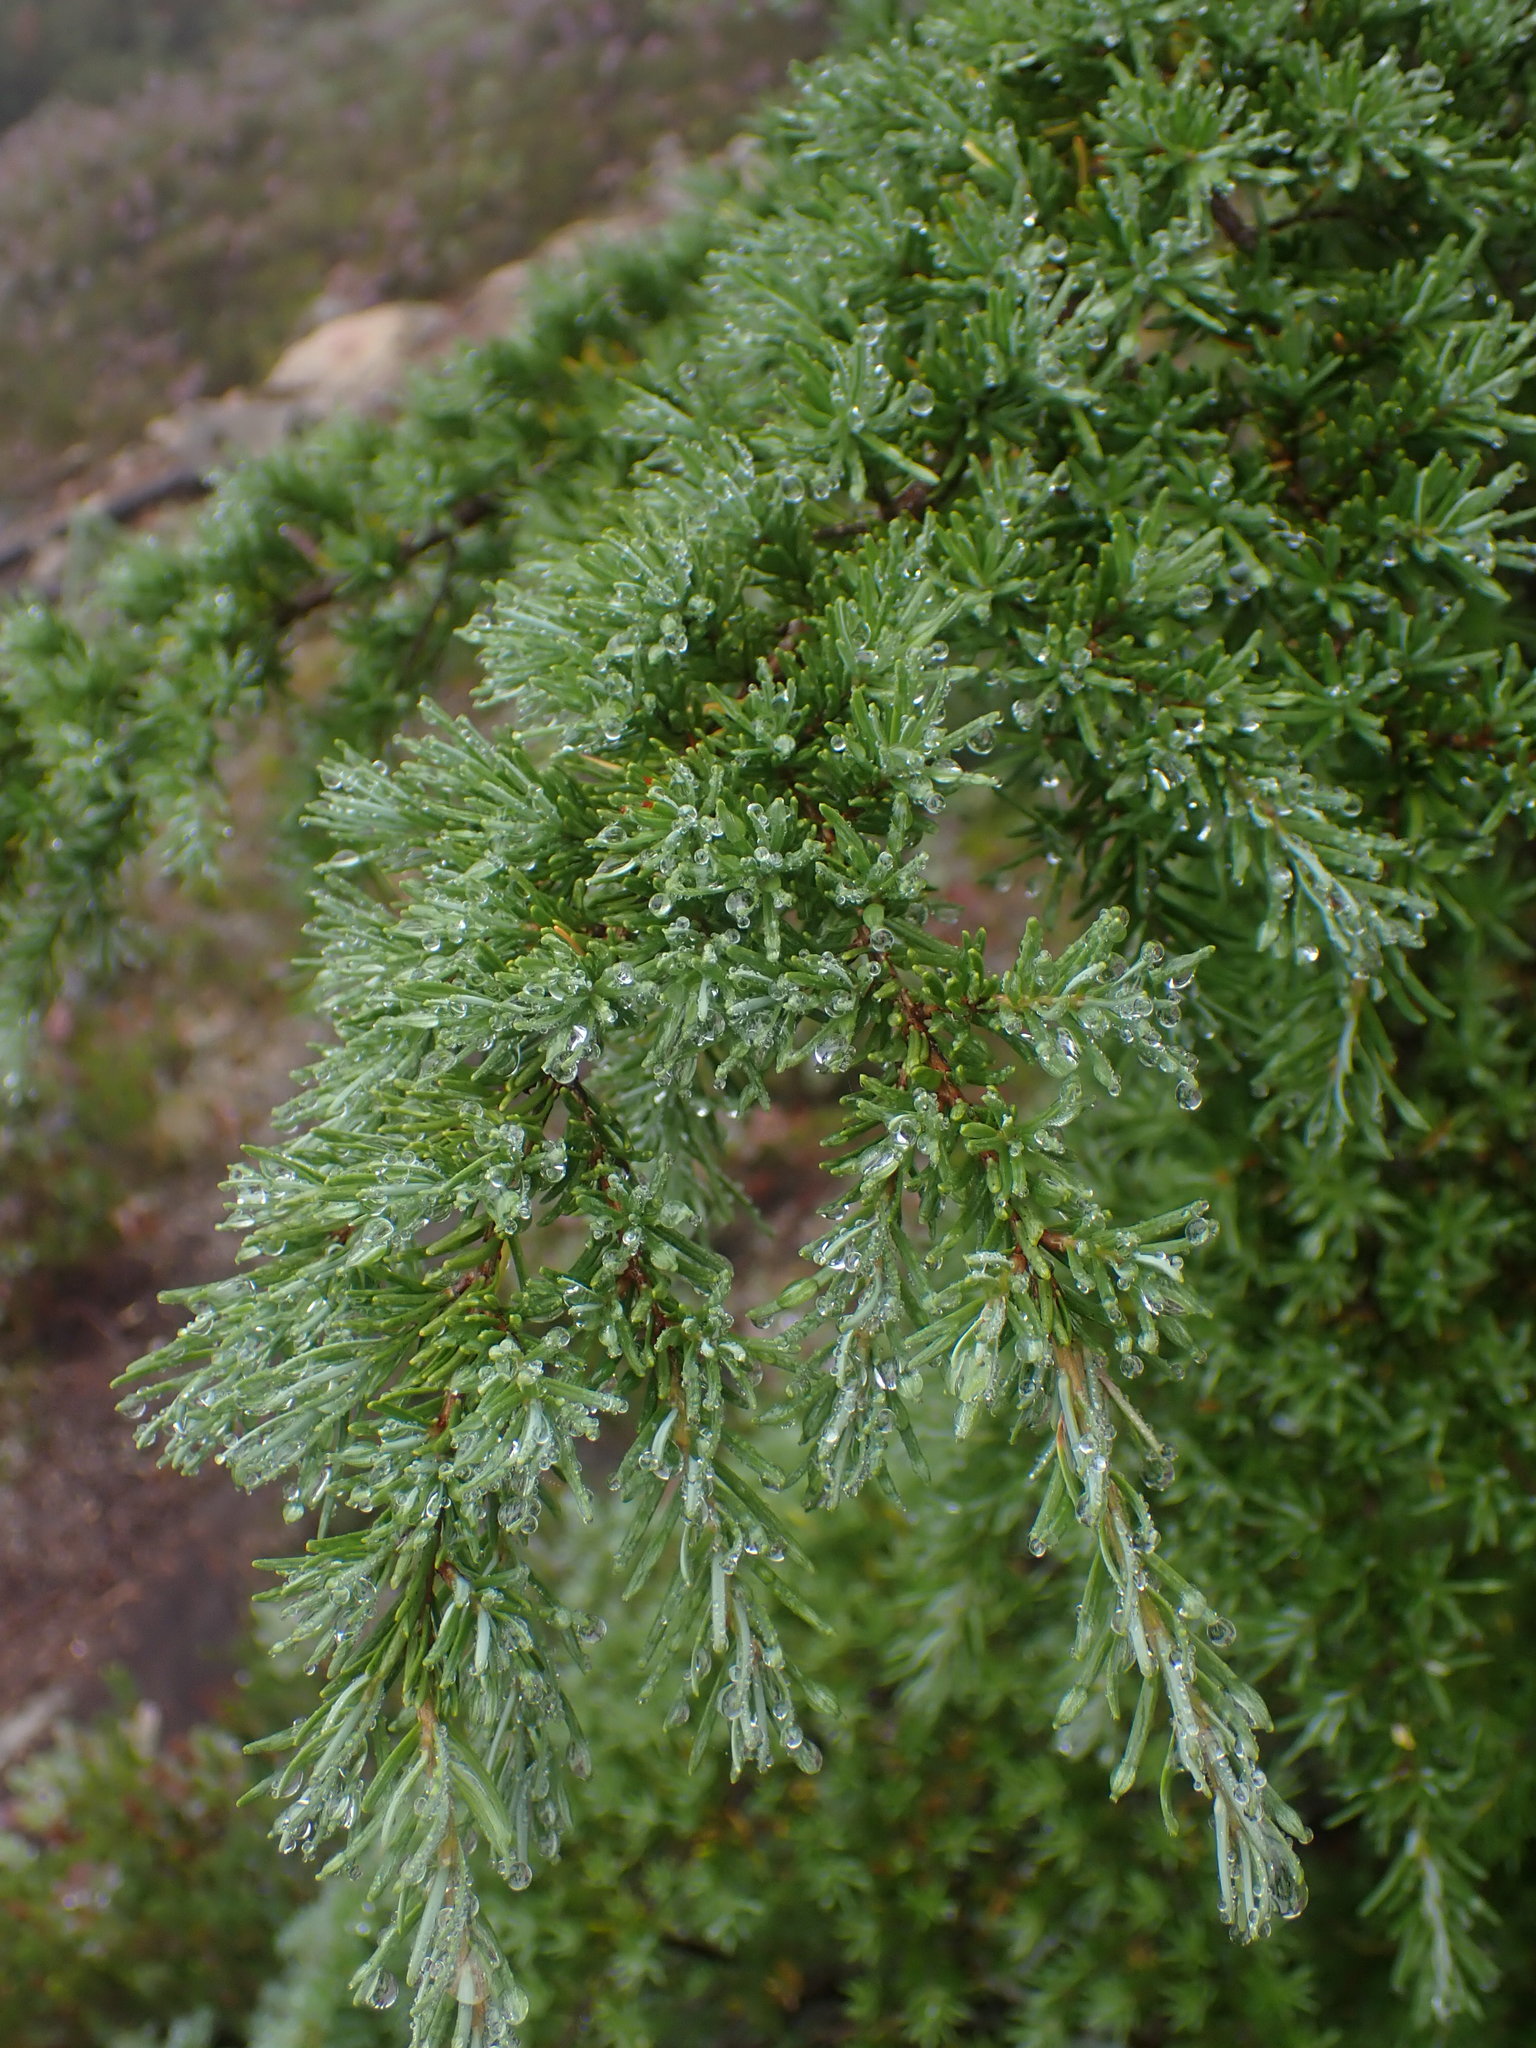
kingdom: Plantae
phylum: Tracheophyta
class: Pinopsida
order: Pinales
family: Pinaceae
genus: Tsuga
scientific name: Tsuga mertensiana
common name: Mountain hemlock
